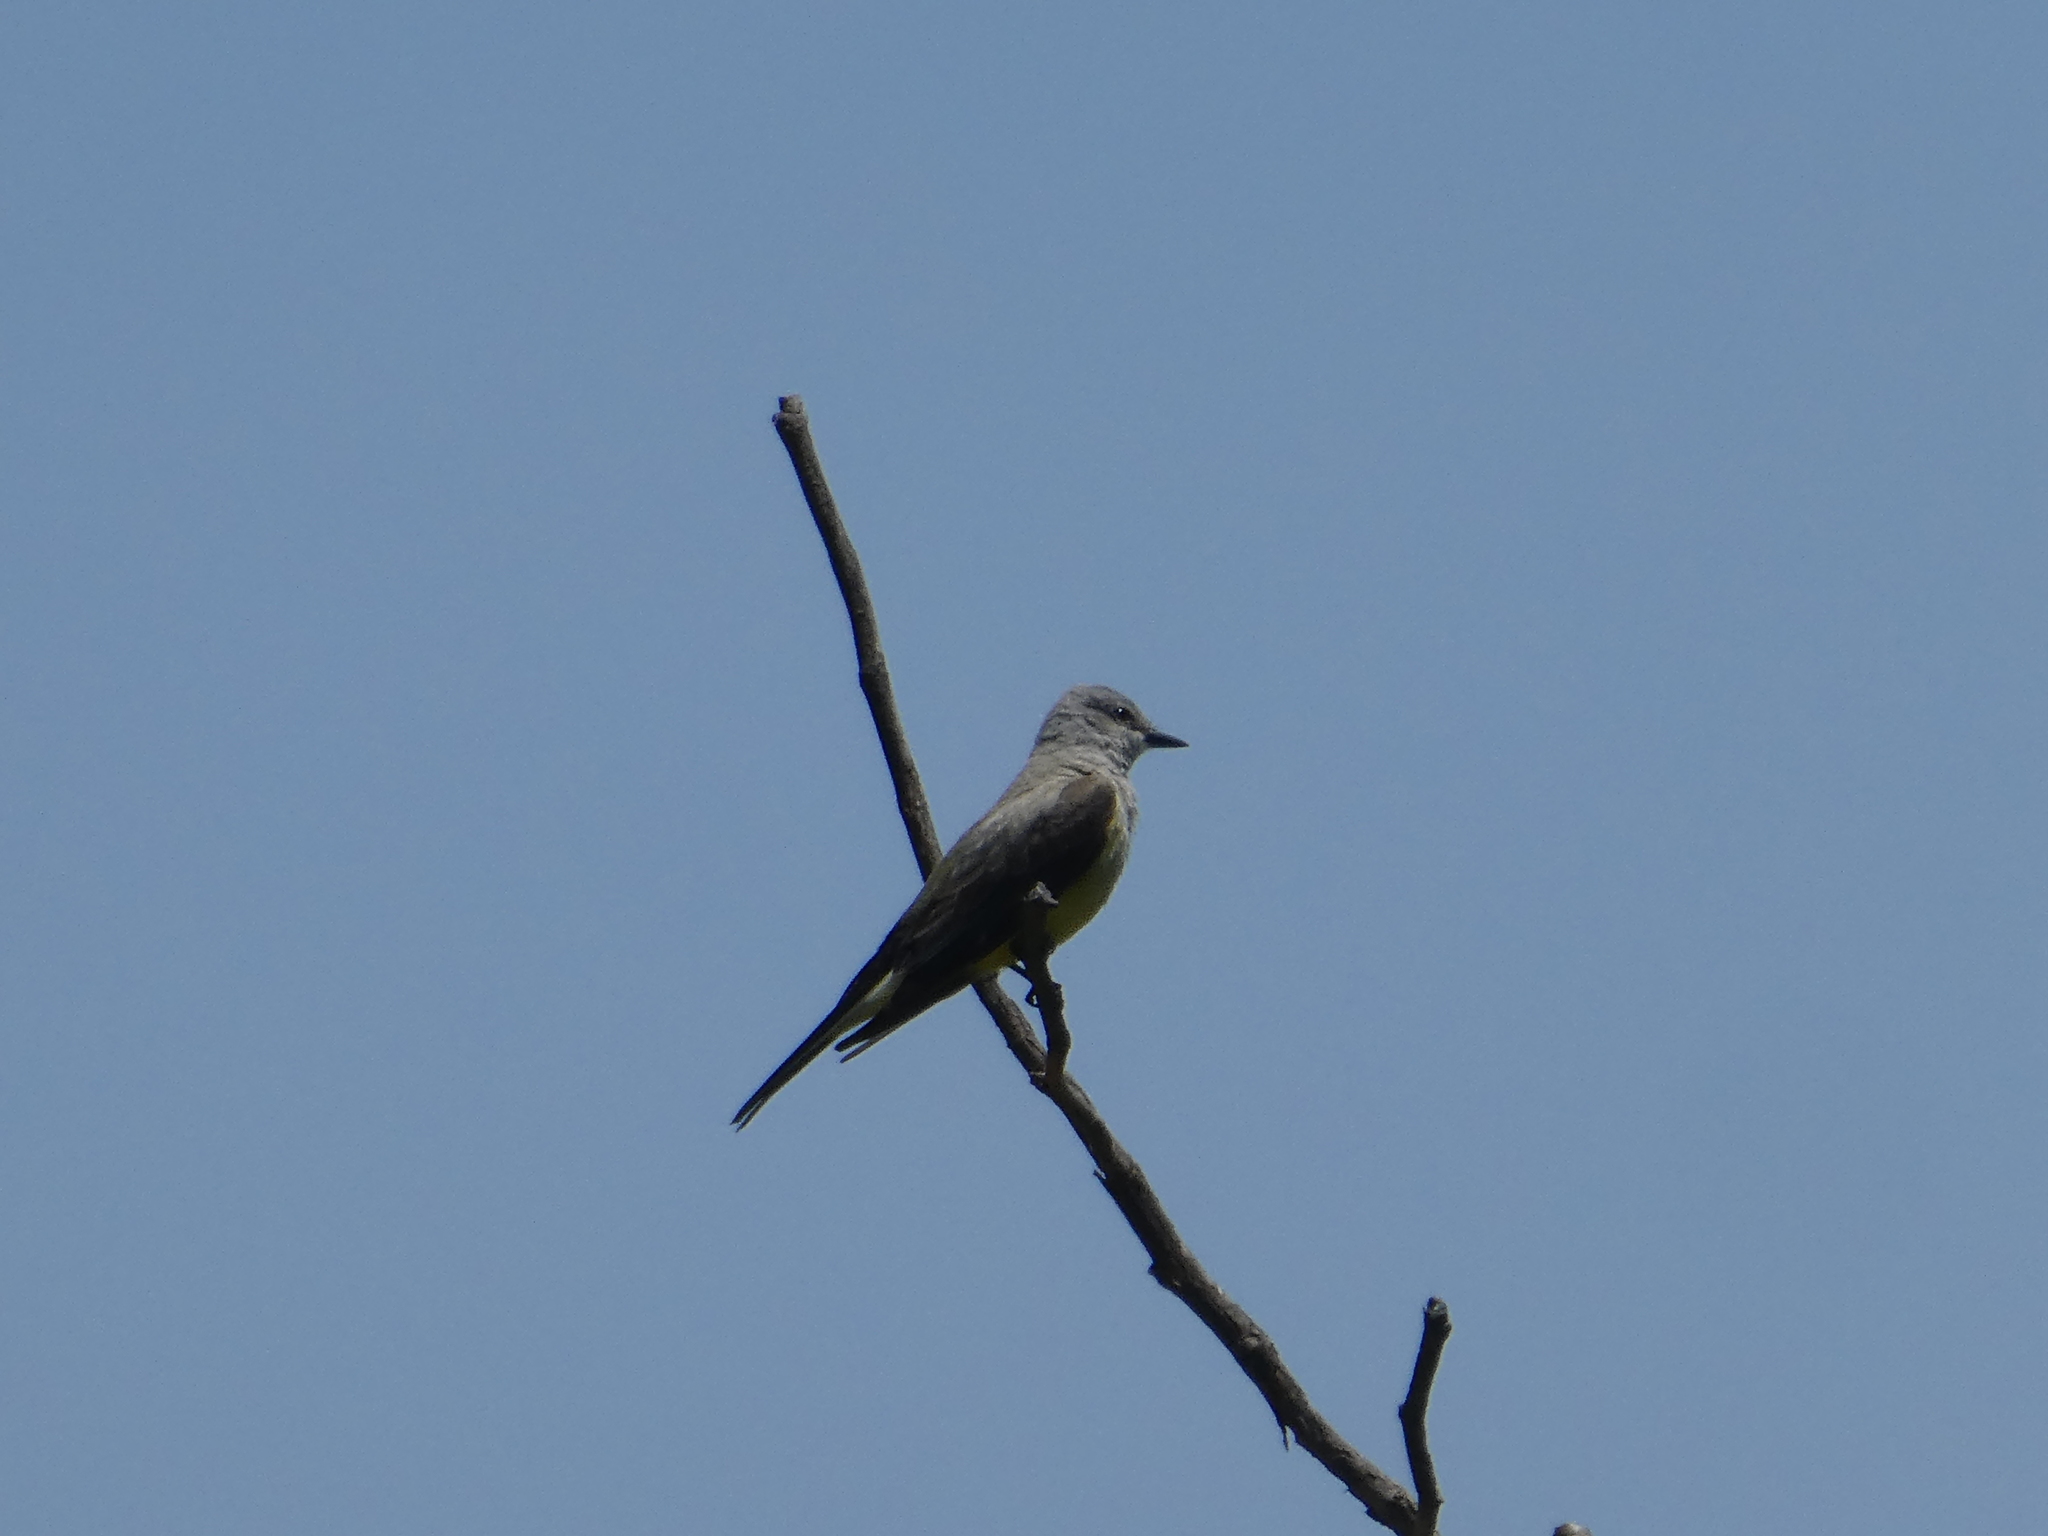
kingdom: Animalia
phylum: Chordata
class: Aves
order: Passeriformes
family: Tyrannidae
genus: Tyrannus
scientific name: Tyrannus verticalis
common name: Western kingbird
